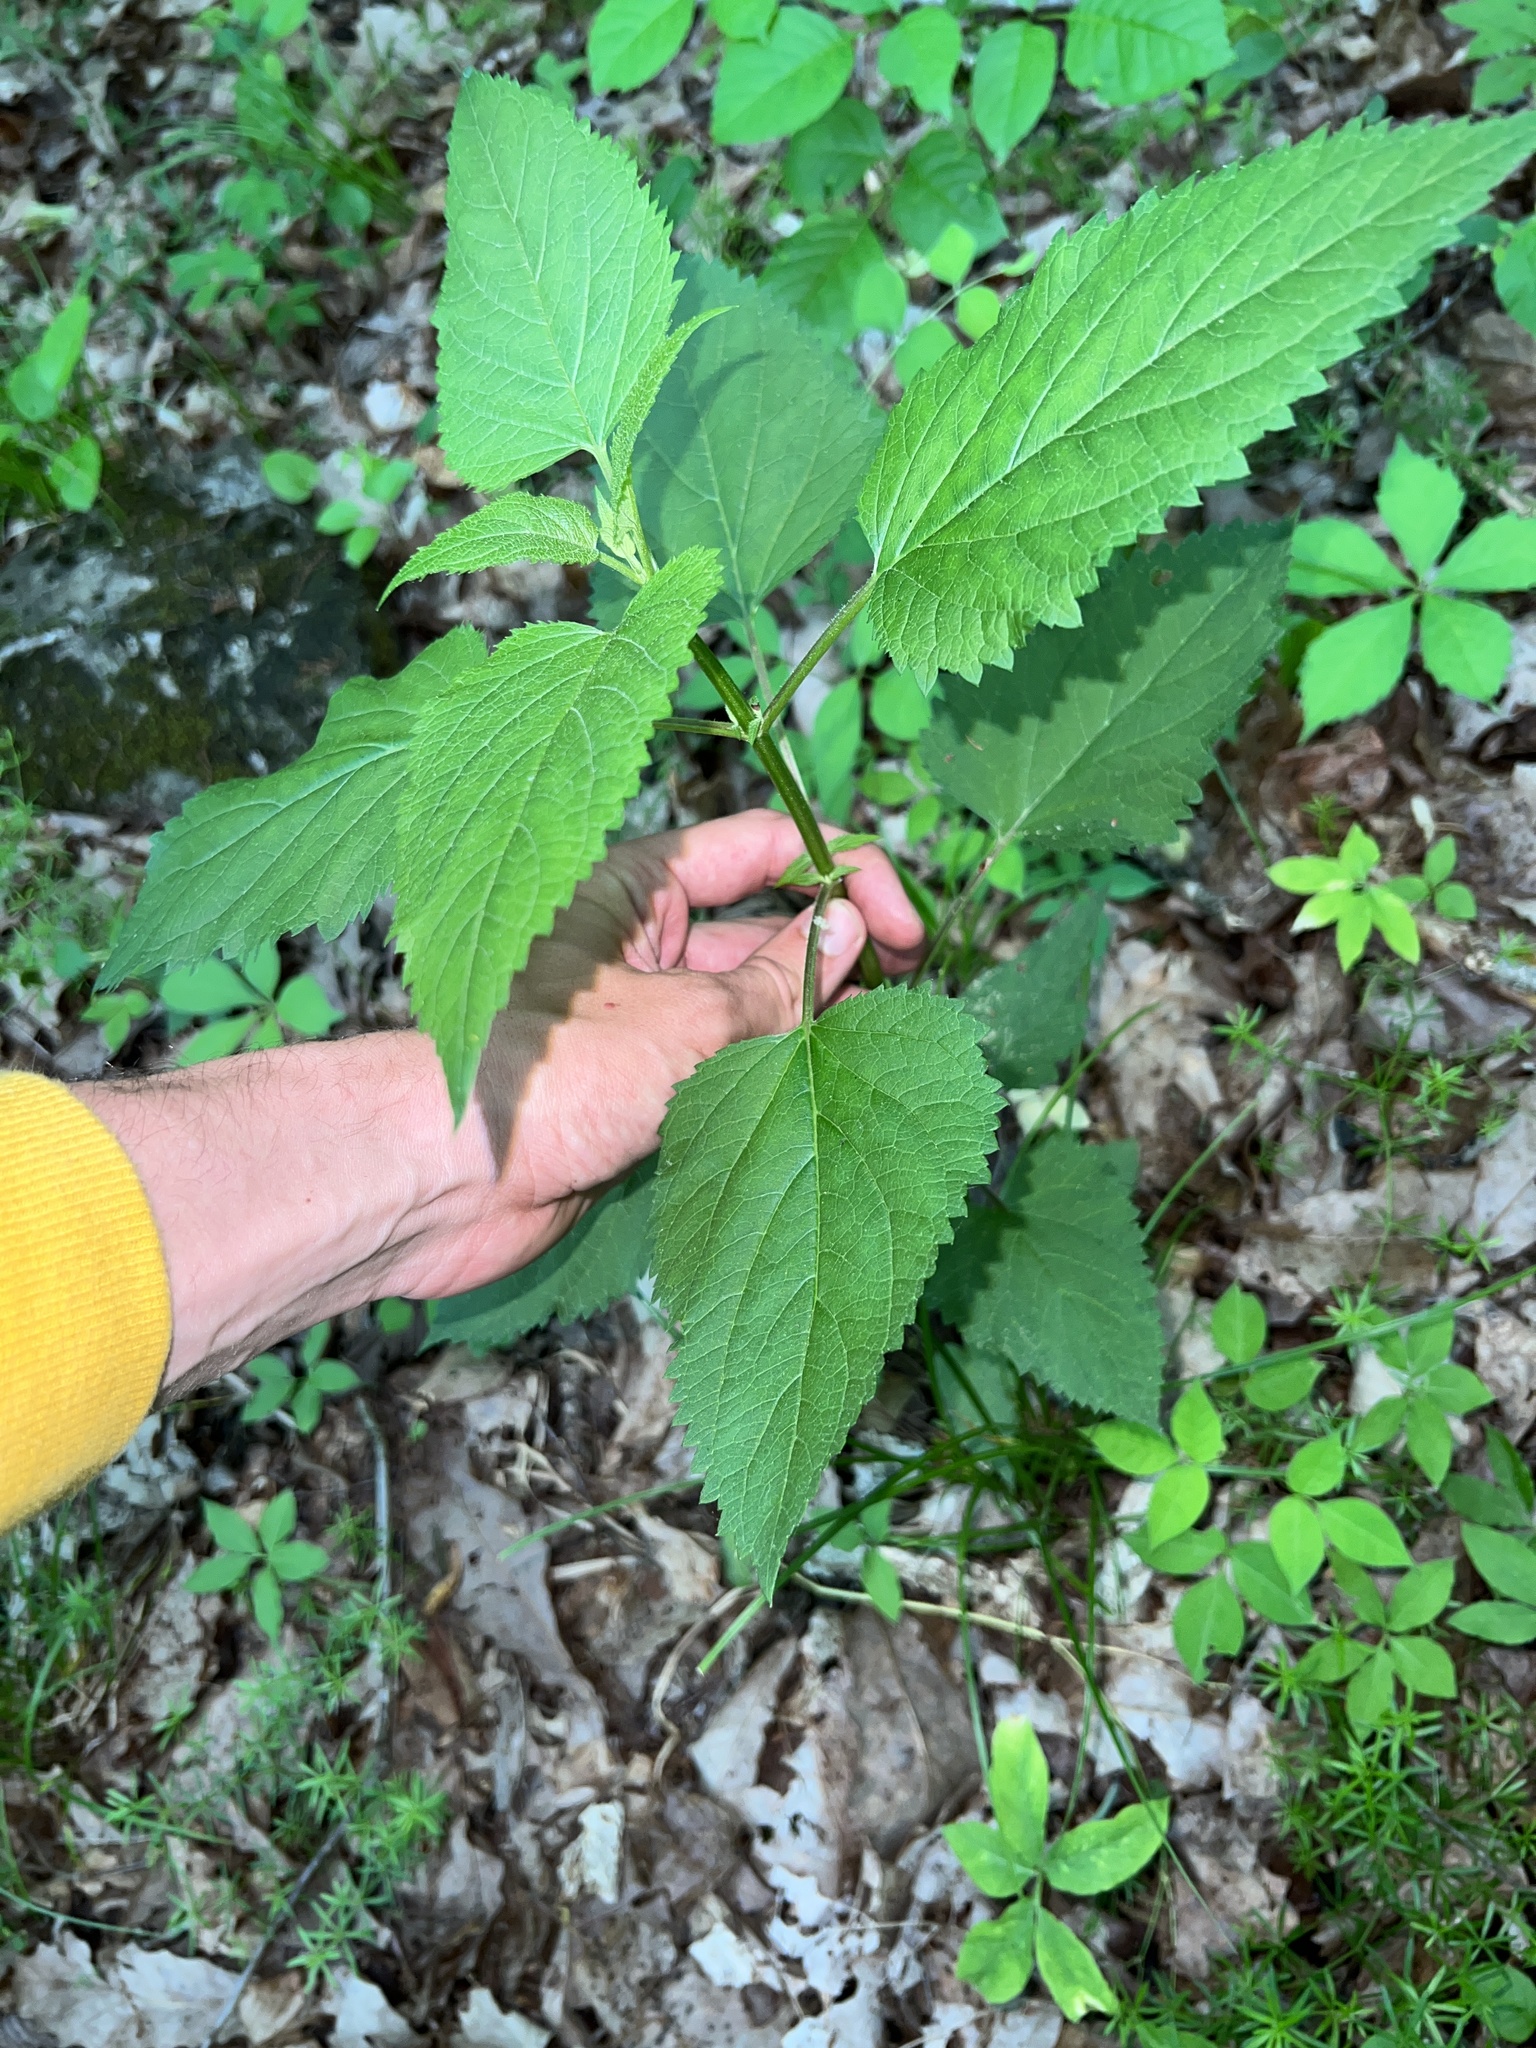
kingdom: Plantae
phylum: Tracheophyta
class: Magnoliopsida
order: Lamiales
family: Scrophulariaceae
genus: Scrophularia
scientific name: Scrophularia marilandica
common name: Eastern figwort
